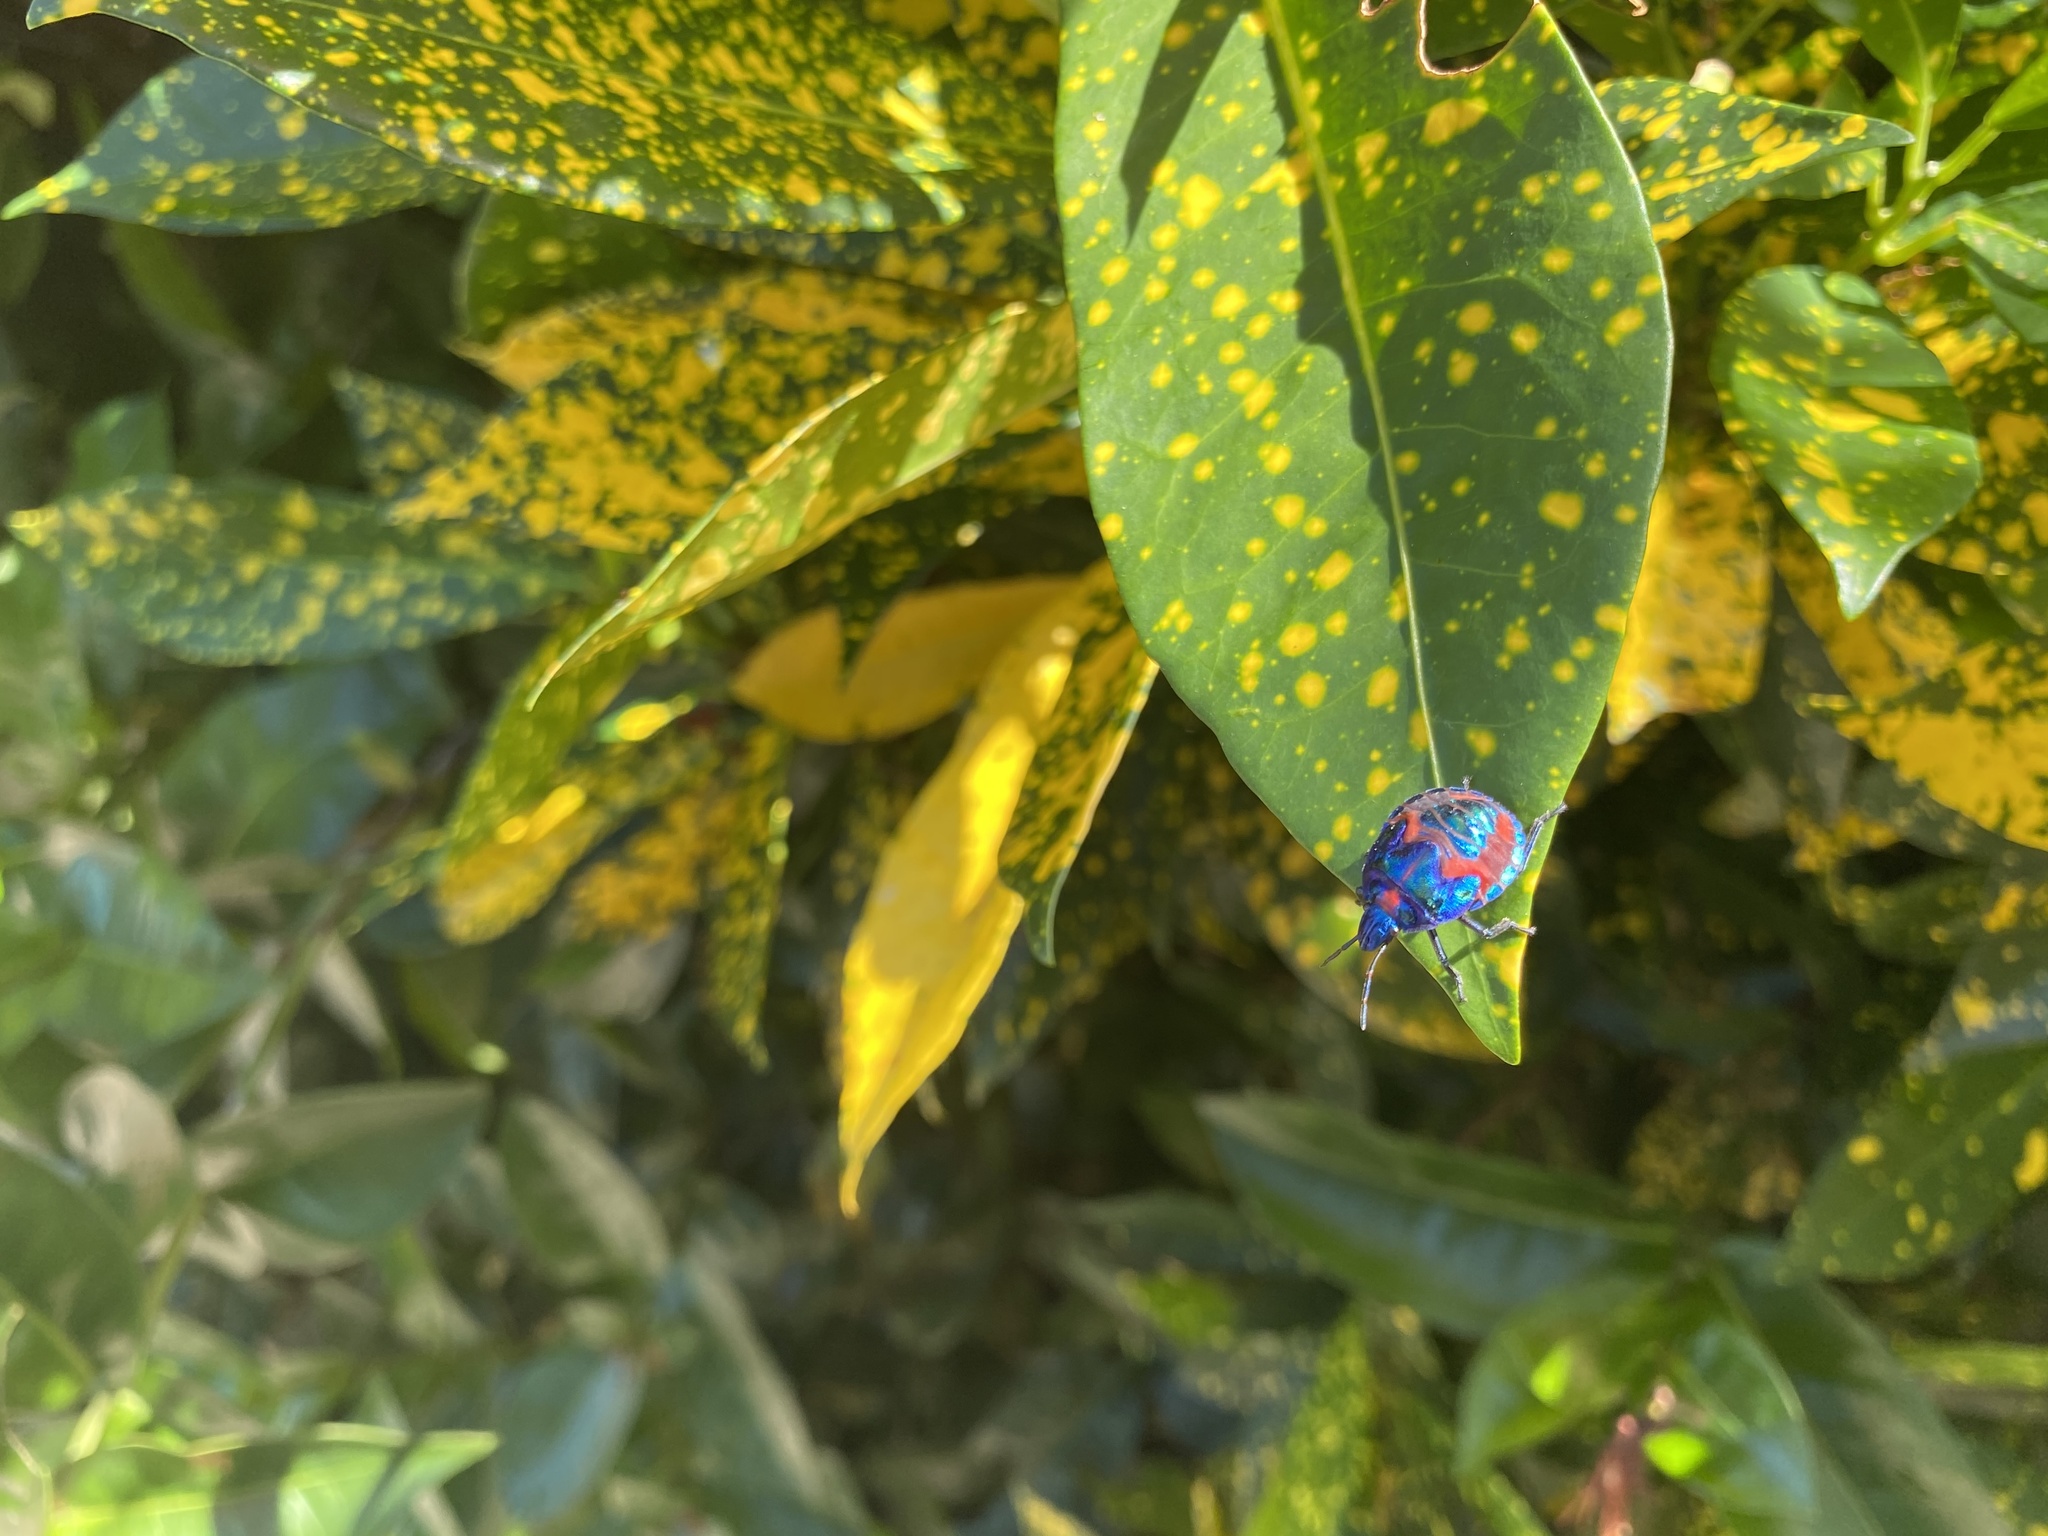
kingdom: Animalia
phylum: Arthropoda
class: Insecta
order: Hemiptera
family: Scutelleridae
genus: Tectocoris
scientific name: Tectocoris diophthalmus
